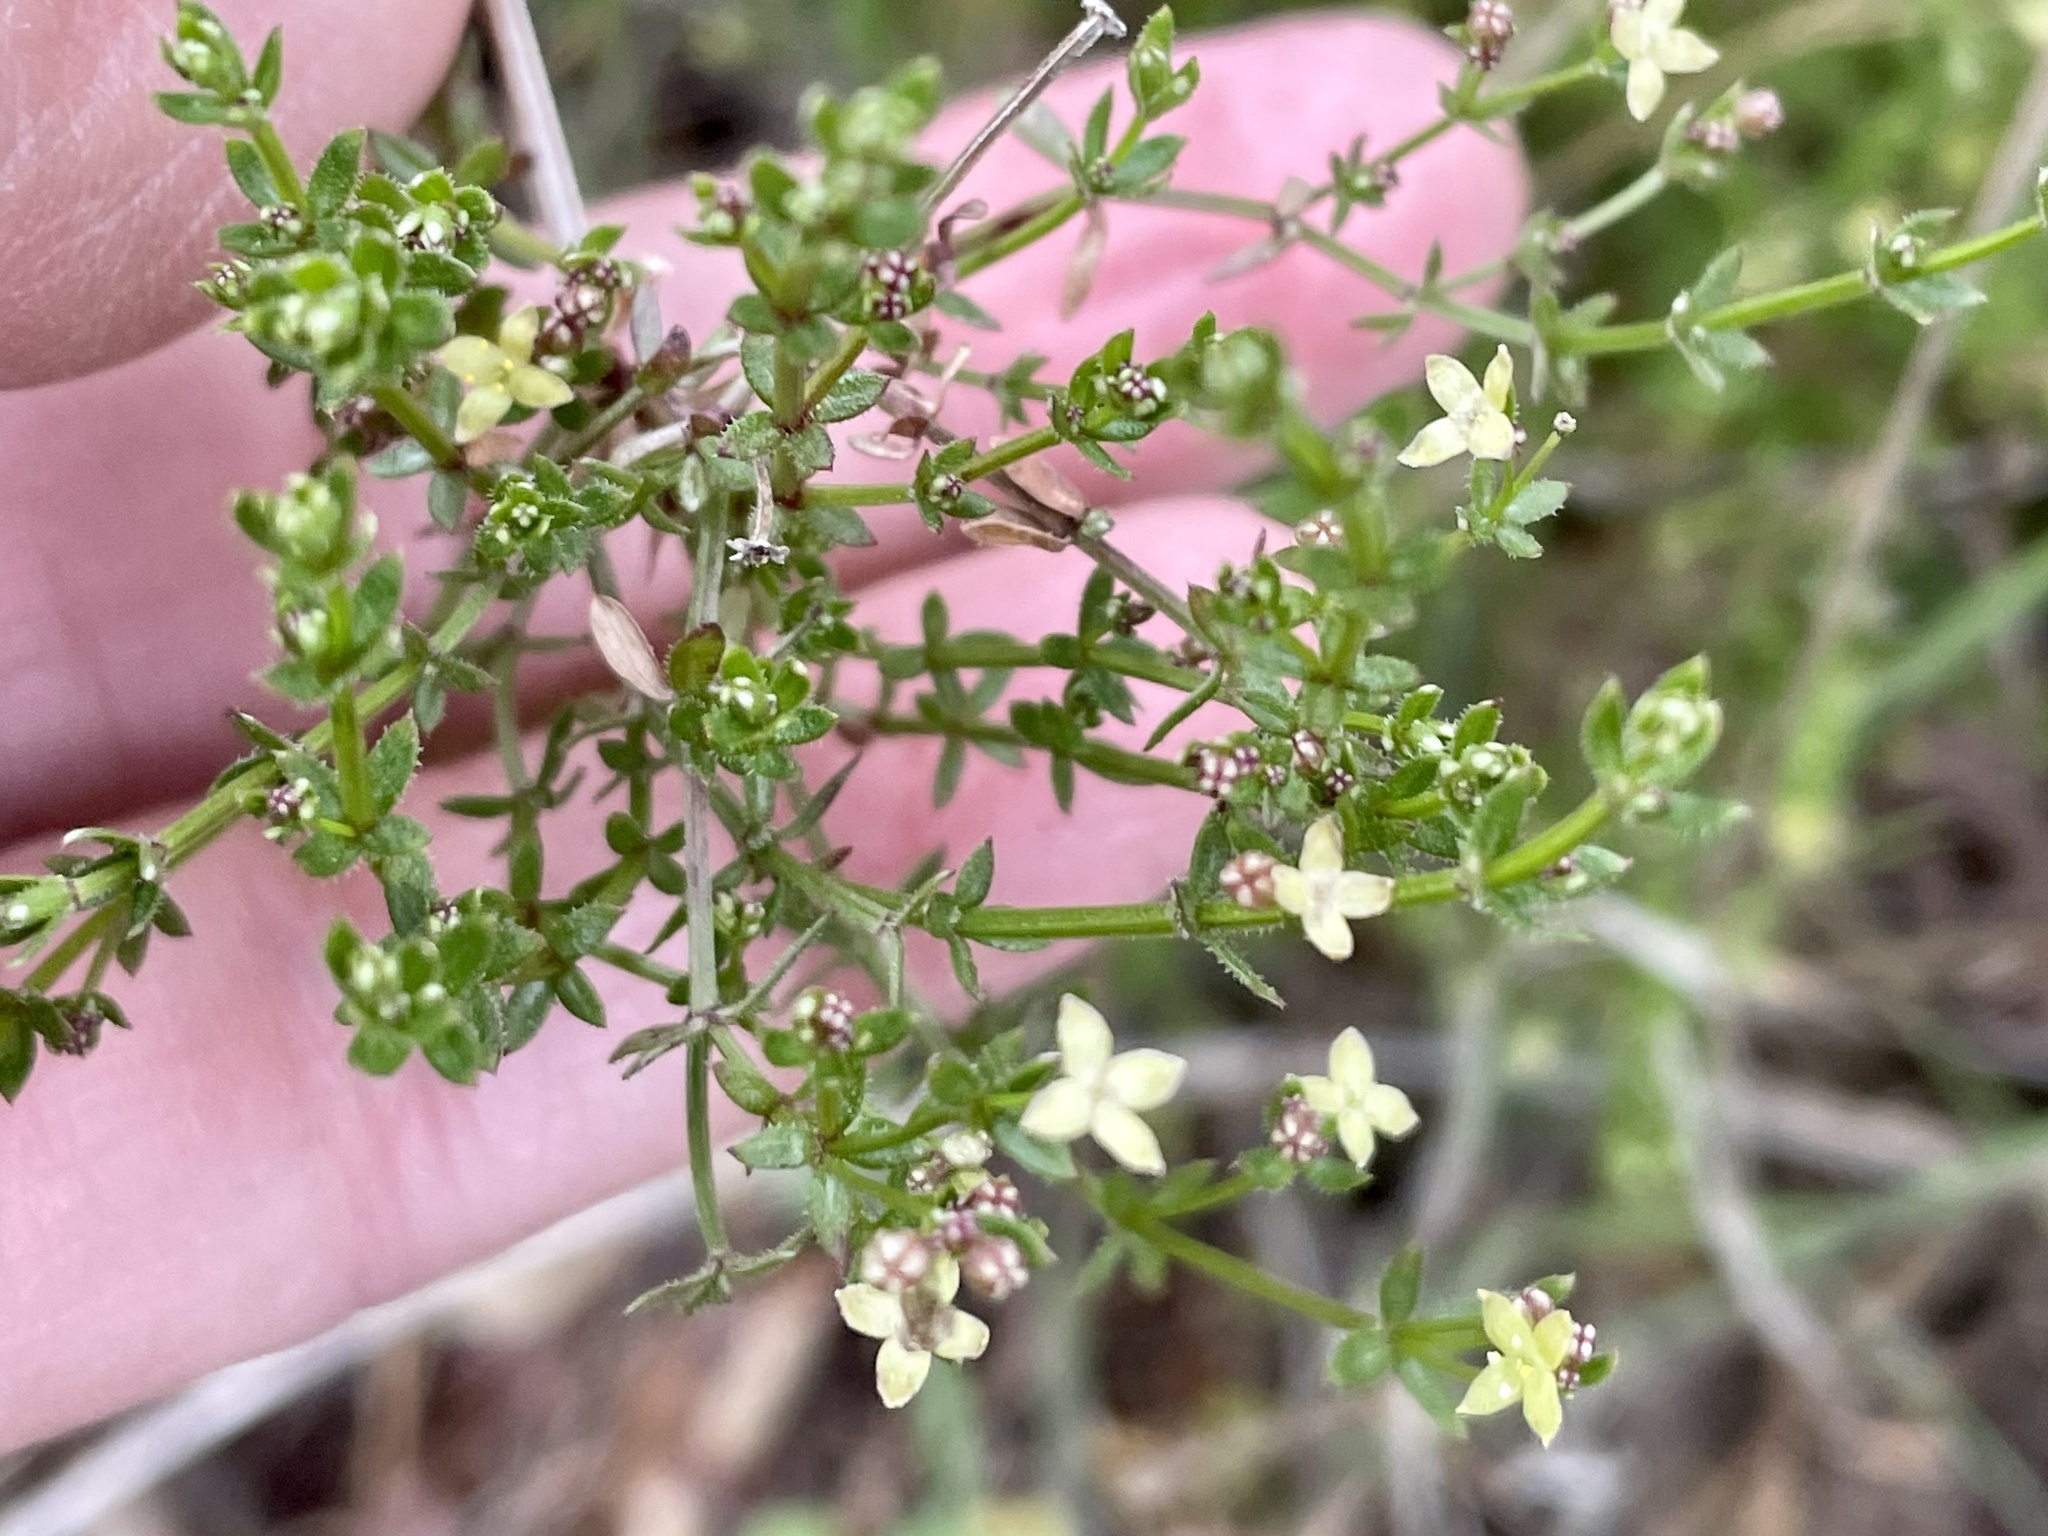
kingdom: Plantae
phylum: Tracheophyta
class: Magnoliopsida
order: Gentianales
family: Rubiaceae
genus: Galium
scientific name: Galium porrigens
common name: Climbing bedstraw
